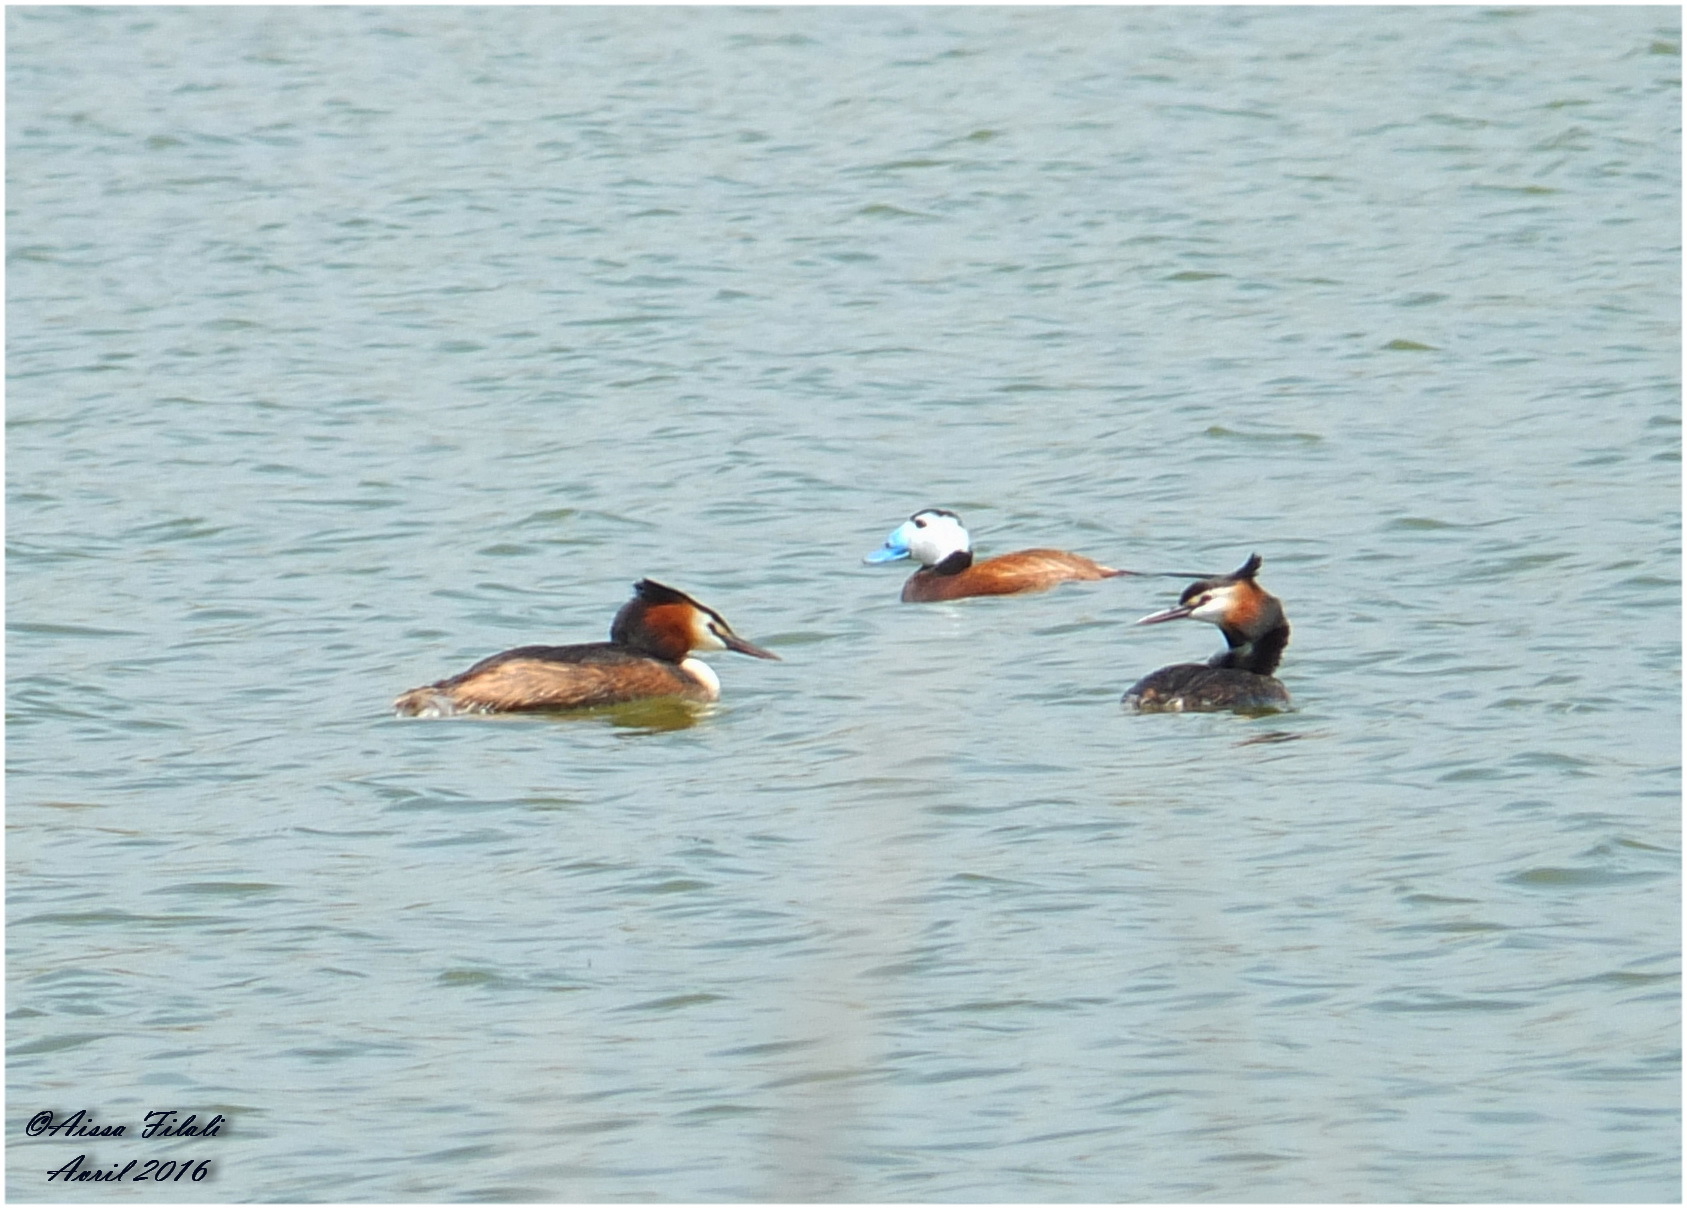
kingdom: Animalia
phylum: Chordata
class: Aves
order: Anseriformes
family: Anatidae
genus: Oxyura
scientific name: Oxyura leucocephala
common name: White-headed duck
